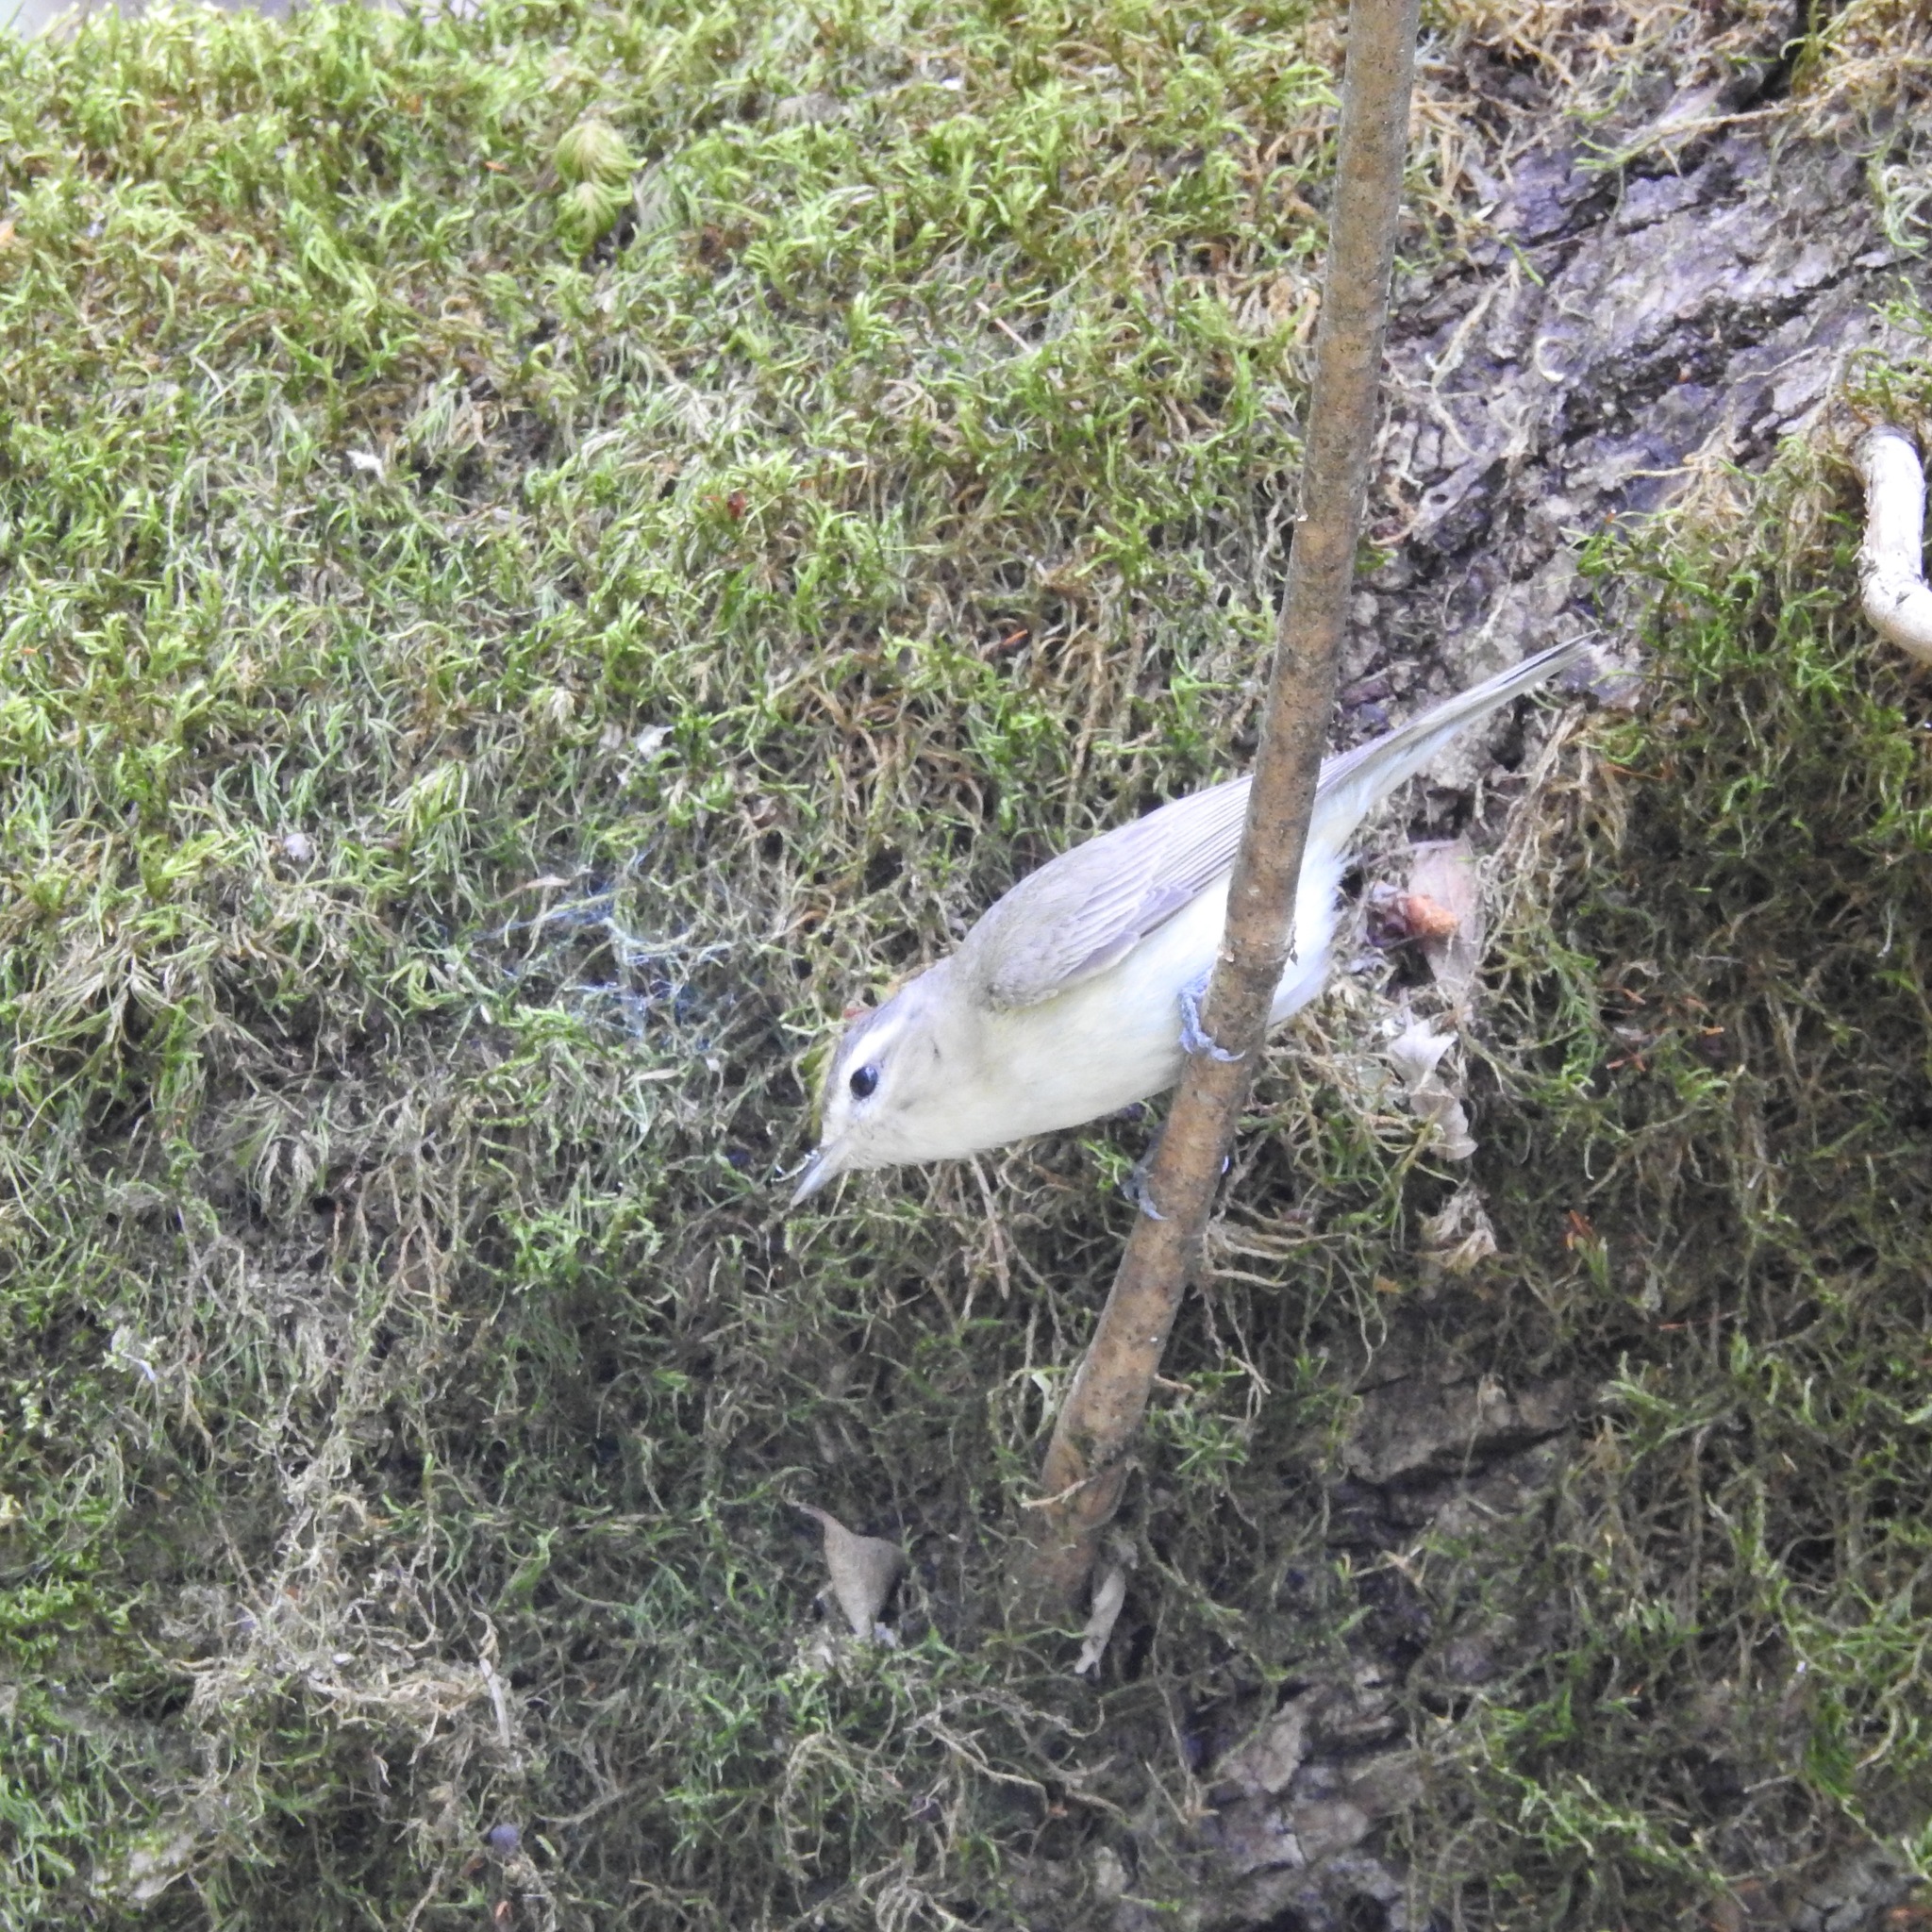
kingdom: Animalia
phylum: Chordata
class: Aves
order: Passeriformes
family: Vireonidae
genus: Vireo
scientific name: Vireo gilvus
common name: Warbling vireo
